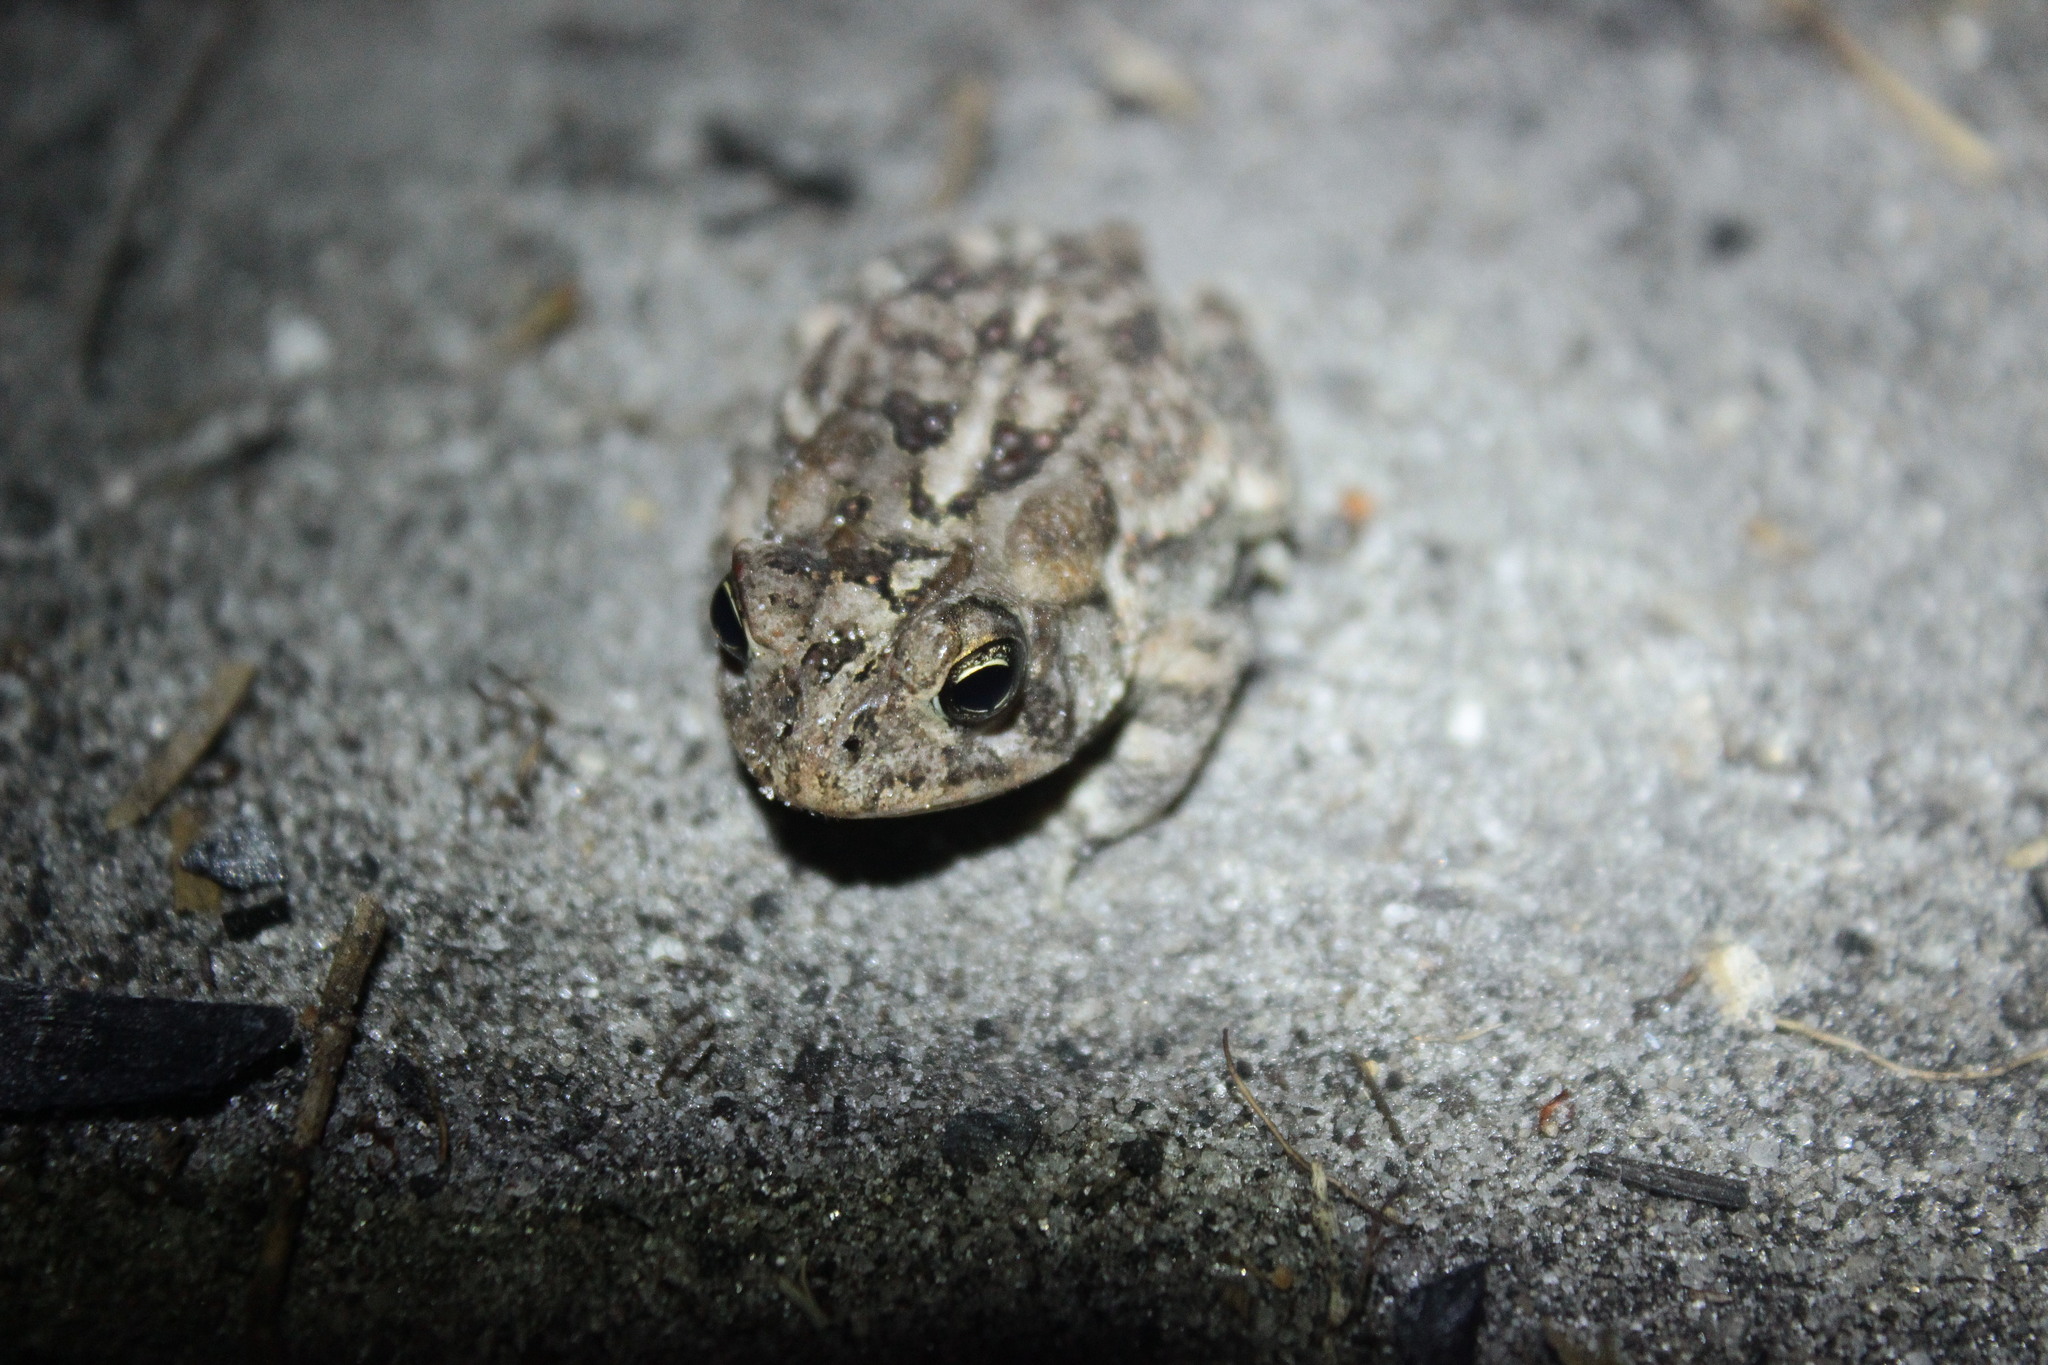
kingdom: Animalia
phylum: Chordata
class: Amphibia
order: Anura
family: Bufonidae
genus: Anaxyrus
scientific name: Anaxyrus terrestris
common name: Southern toad
